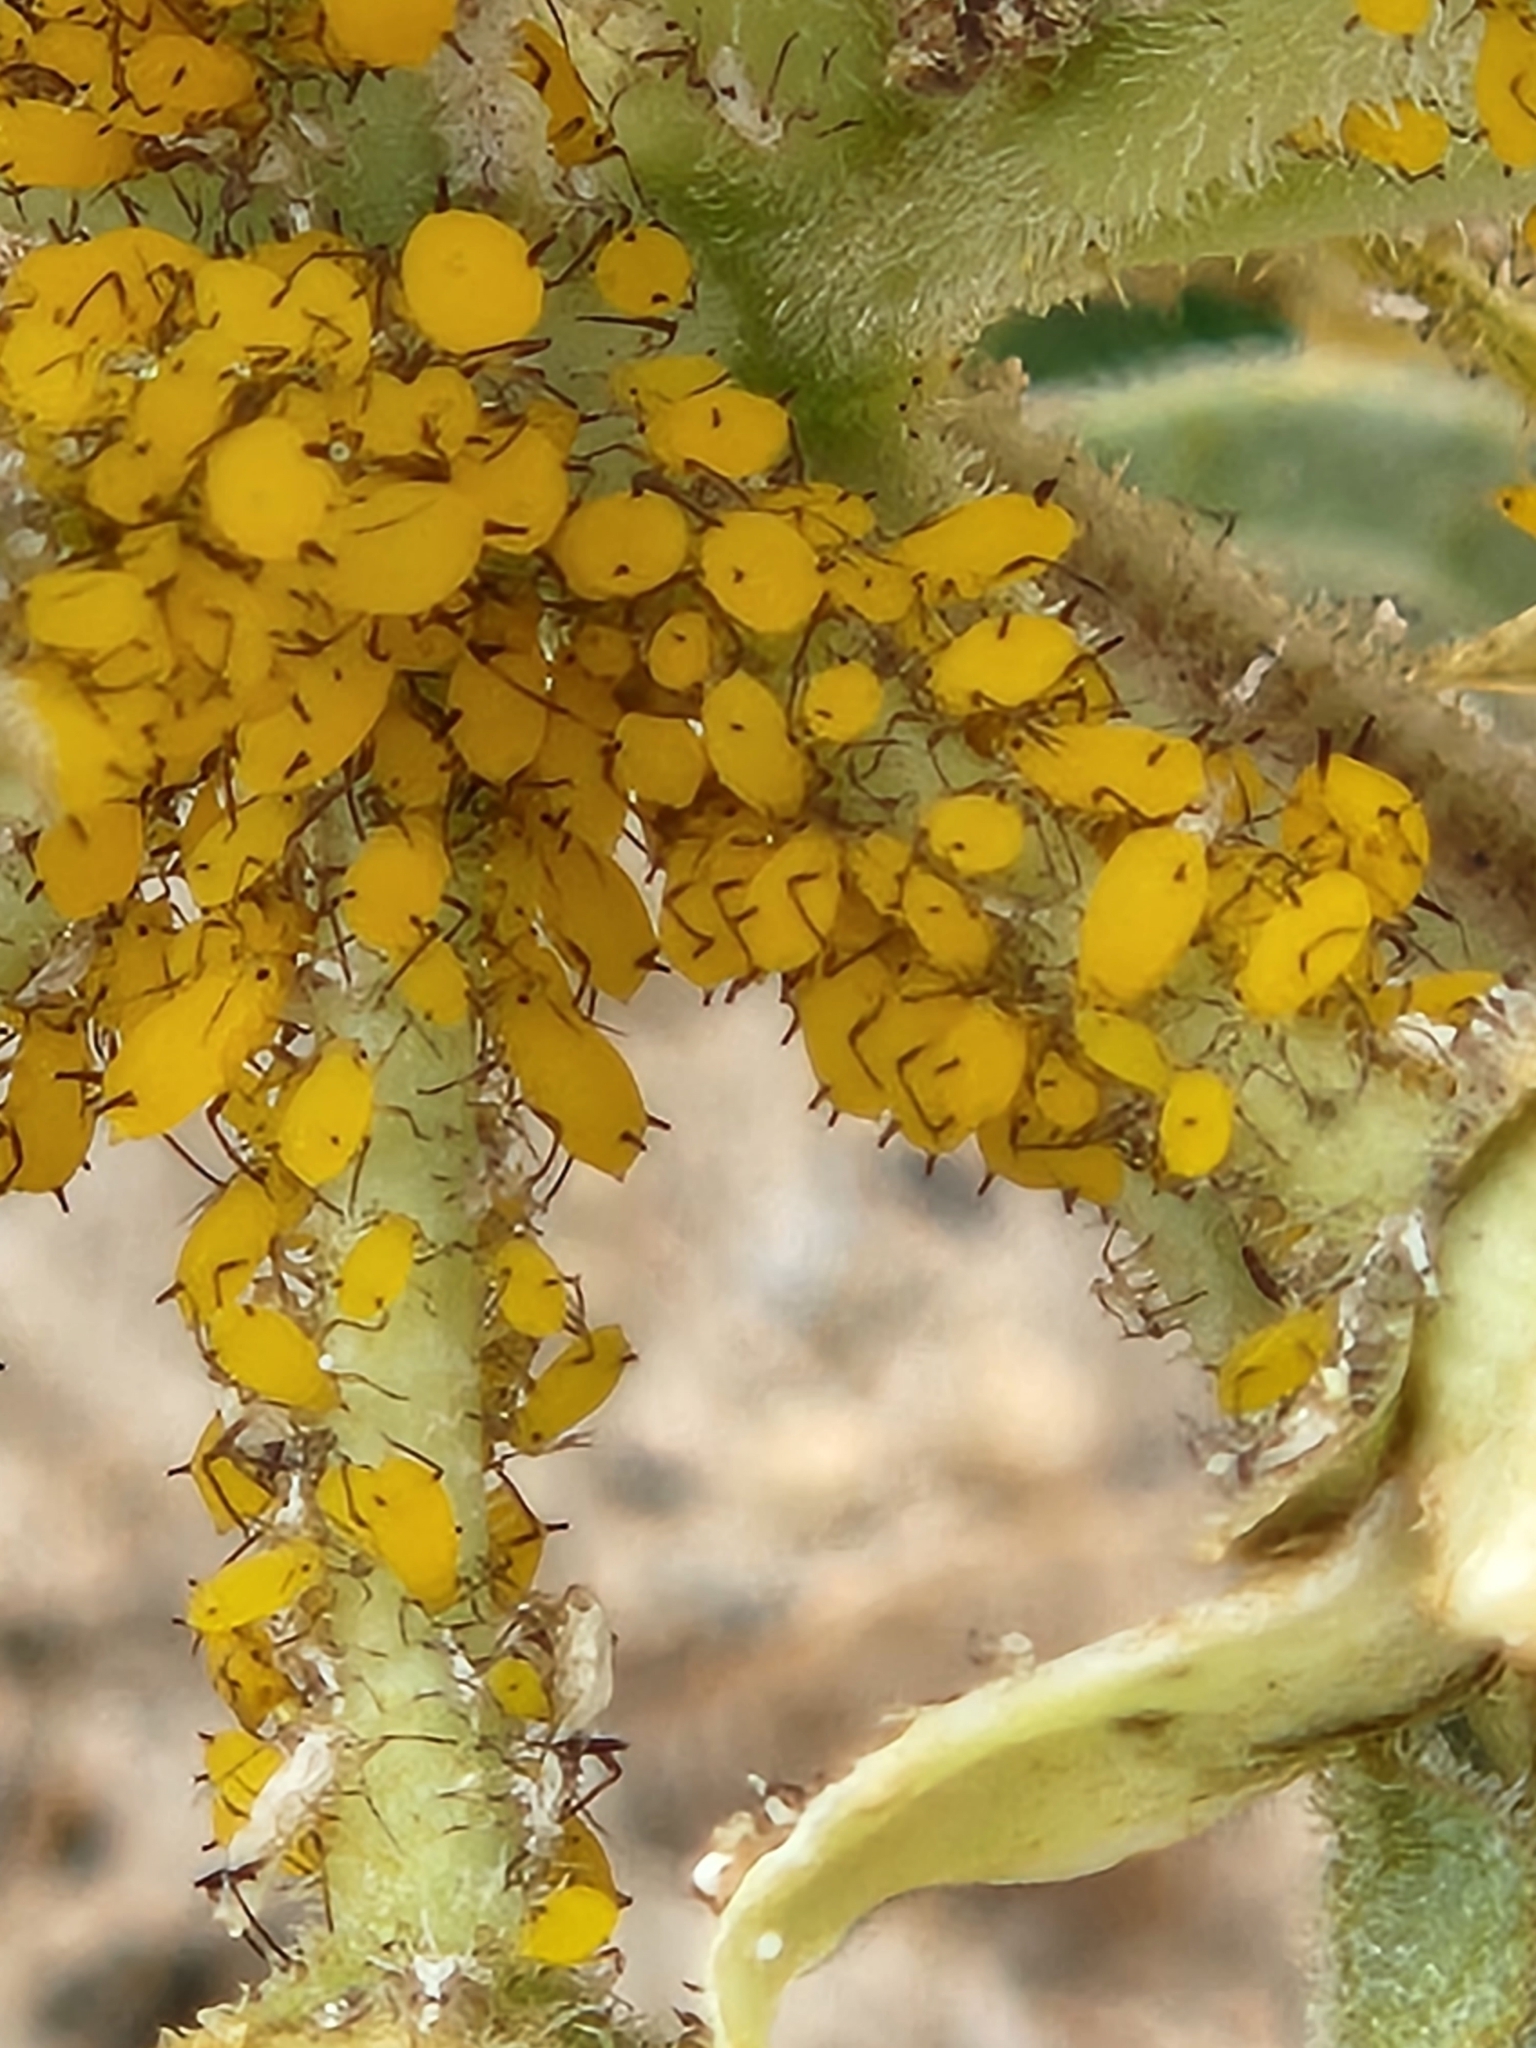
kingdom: Animalia
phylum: Arthropoda
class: Insecta
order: Hemiptera
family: Aphididae
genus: Aphis
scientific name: Aphis nerii
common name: Oleander aphid
